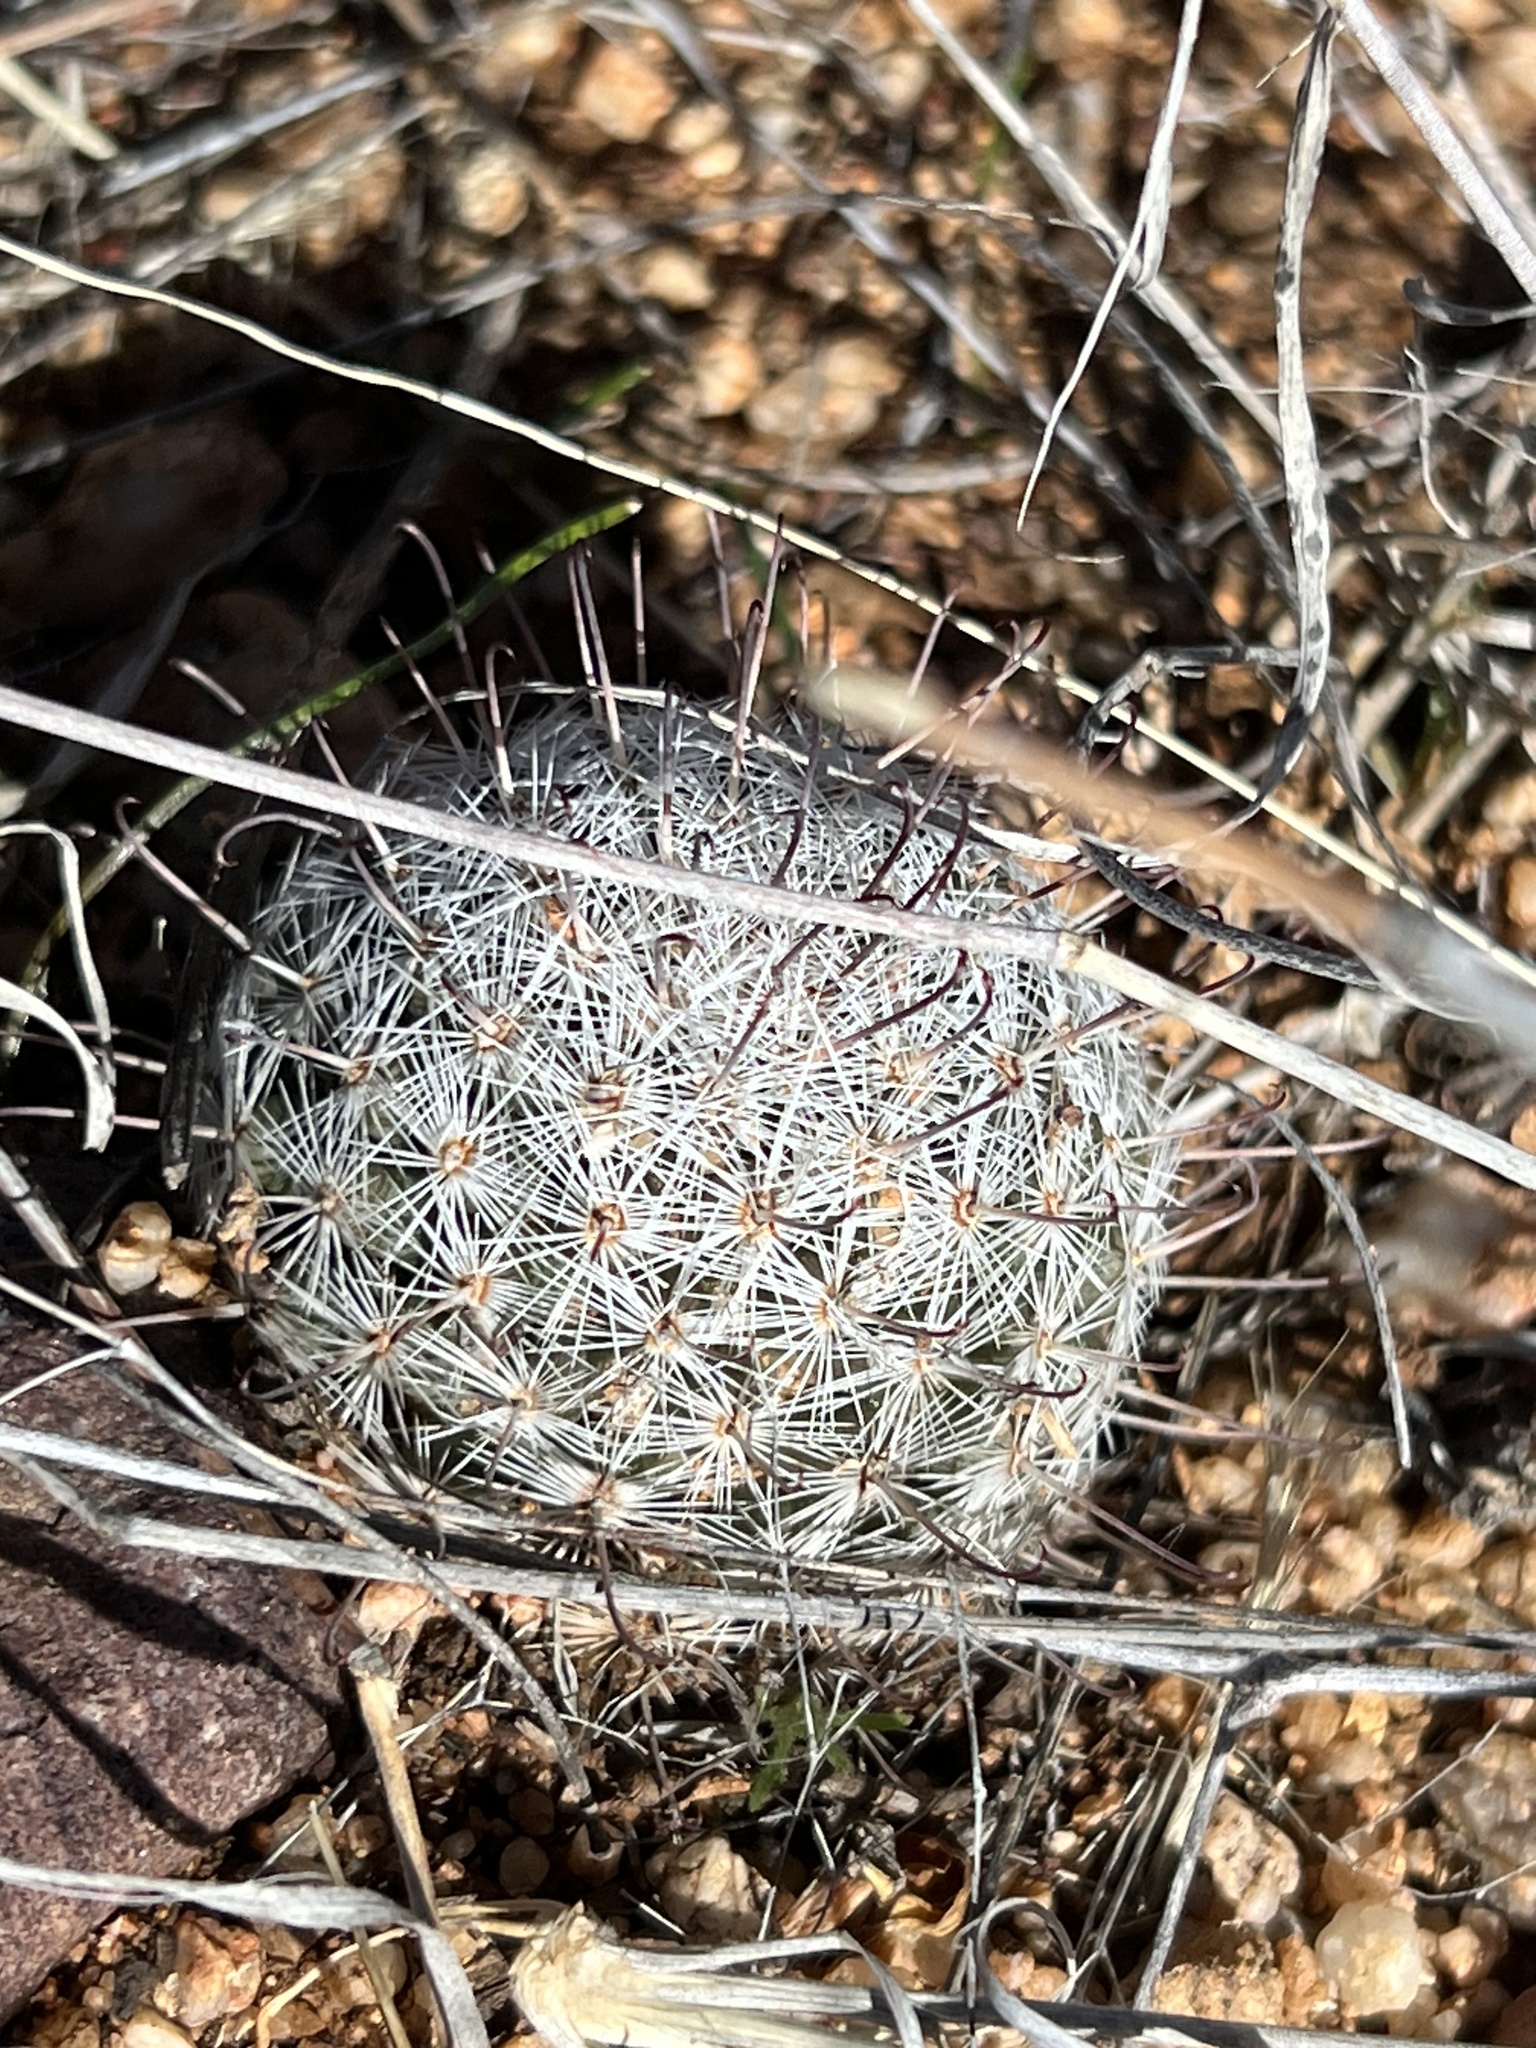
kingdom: Plantae
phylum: Tracheophyta
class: Magnoliopsida
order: Caryophyllales
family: Cactaceae
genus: Cochemiea
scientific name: Cochemiea grahamii
